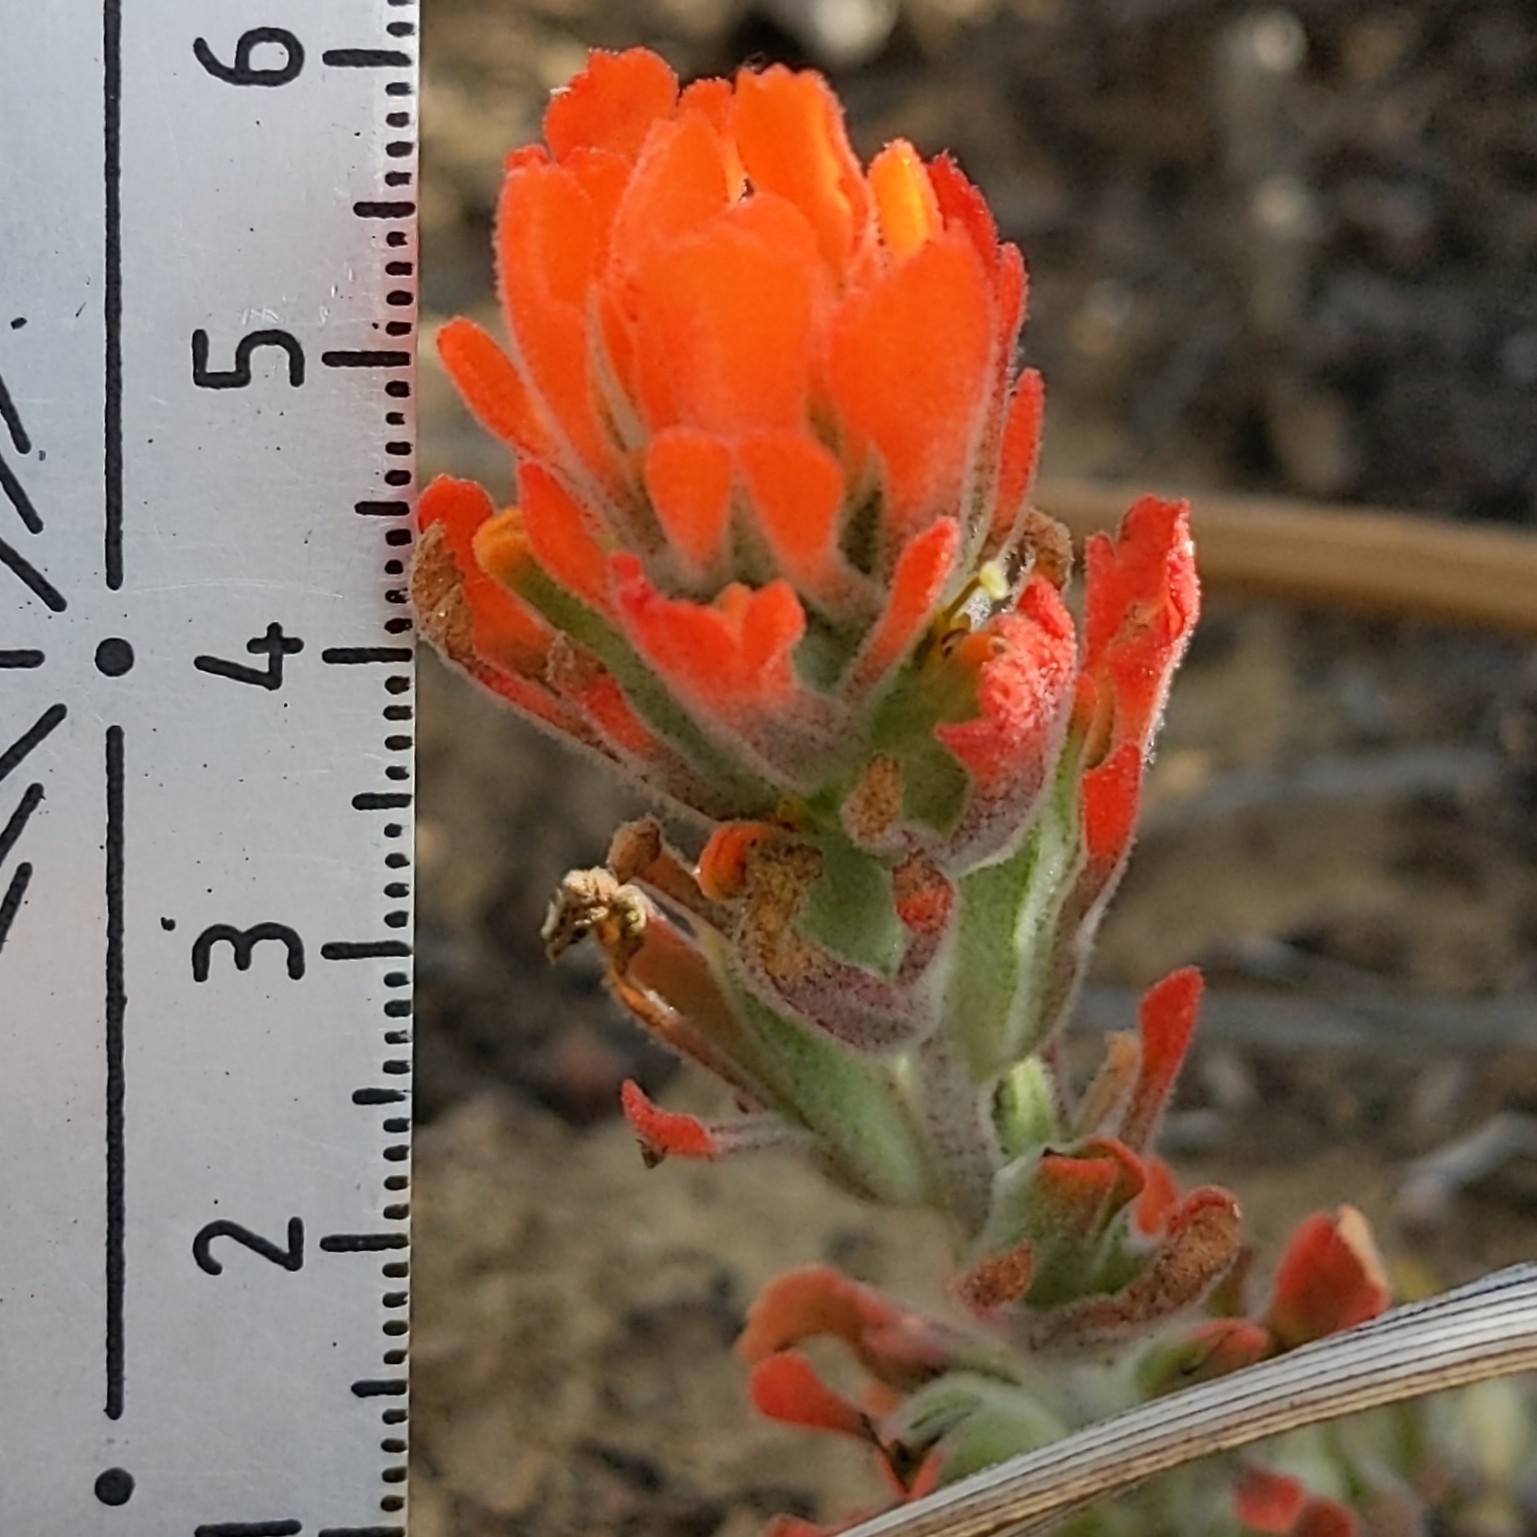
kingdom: Plantae
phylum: Tracheophyta
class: Magnoliopsida
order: Lamiales
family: Orobanchaceae
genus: Castilleja
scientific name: Castilleja foliolosa
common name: Woolly indian paintbrush
